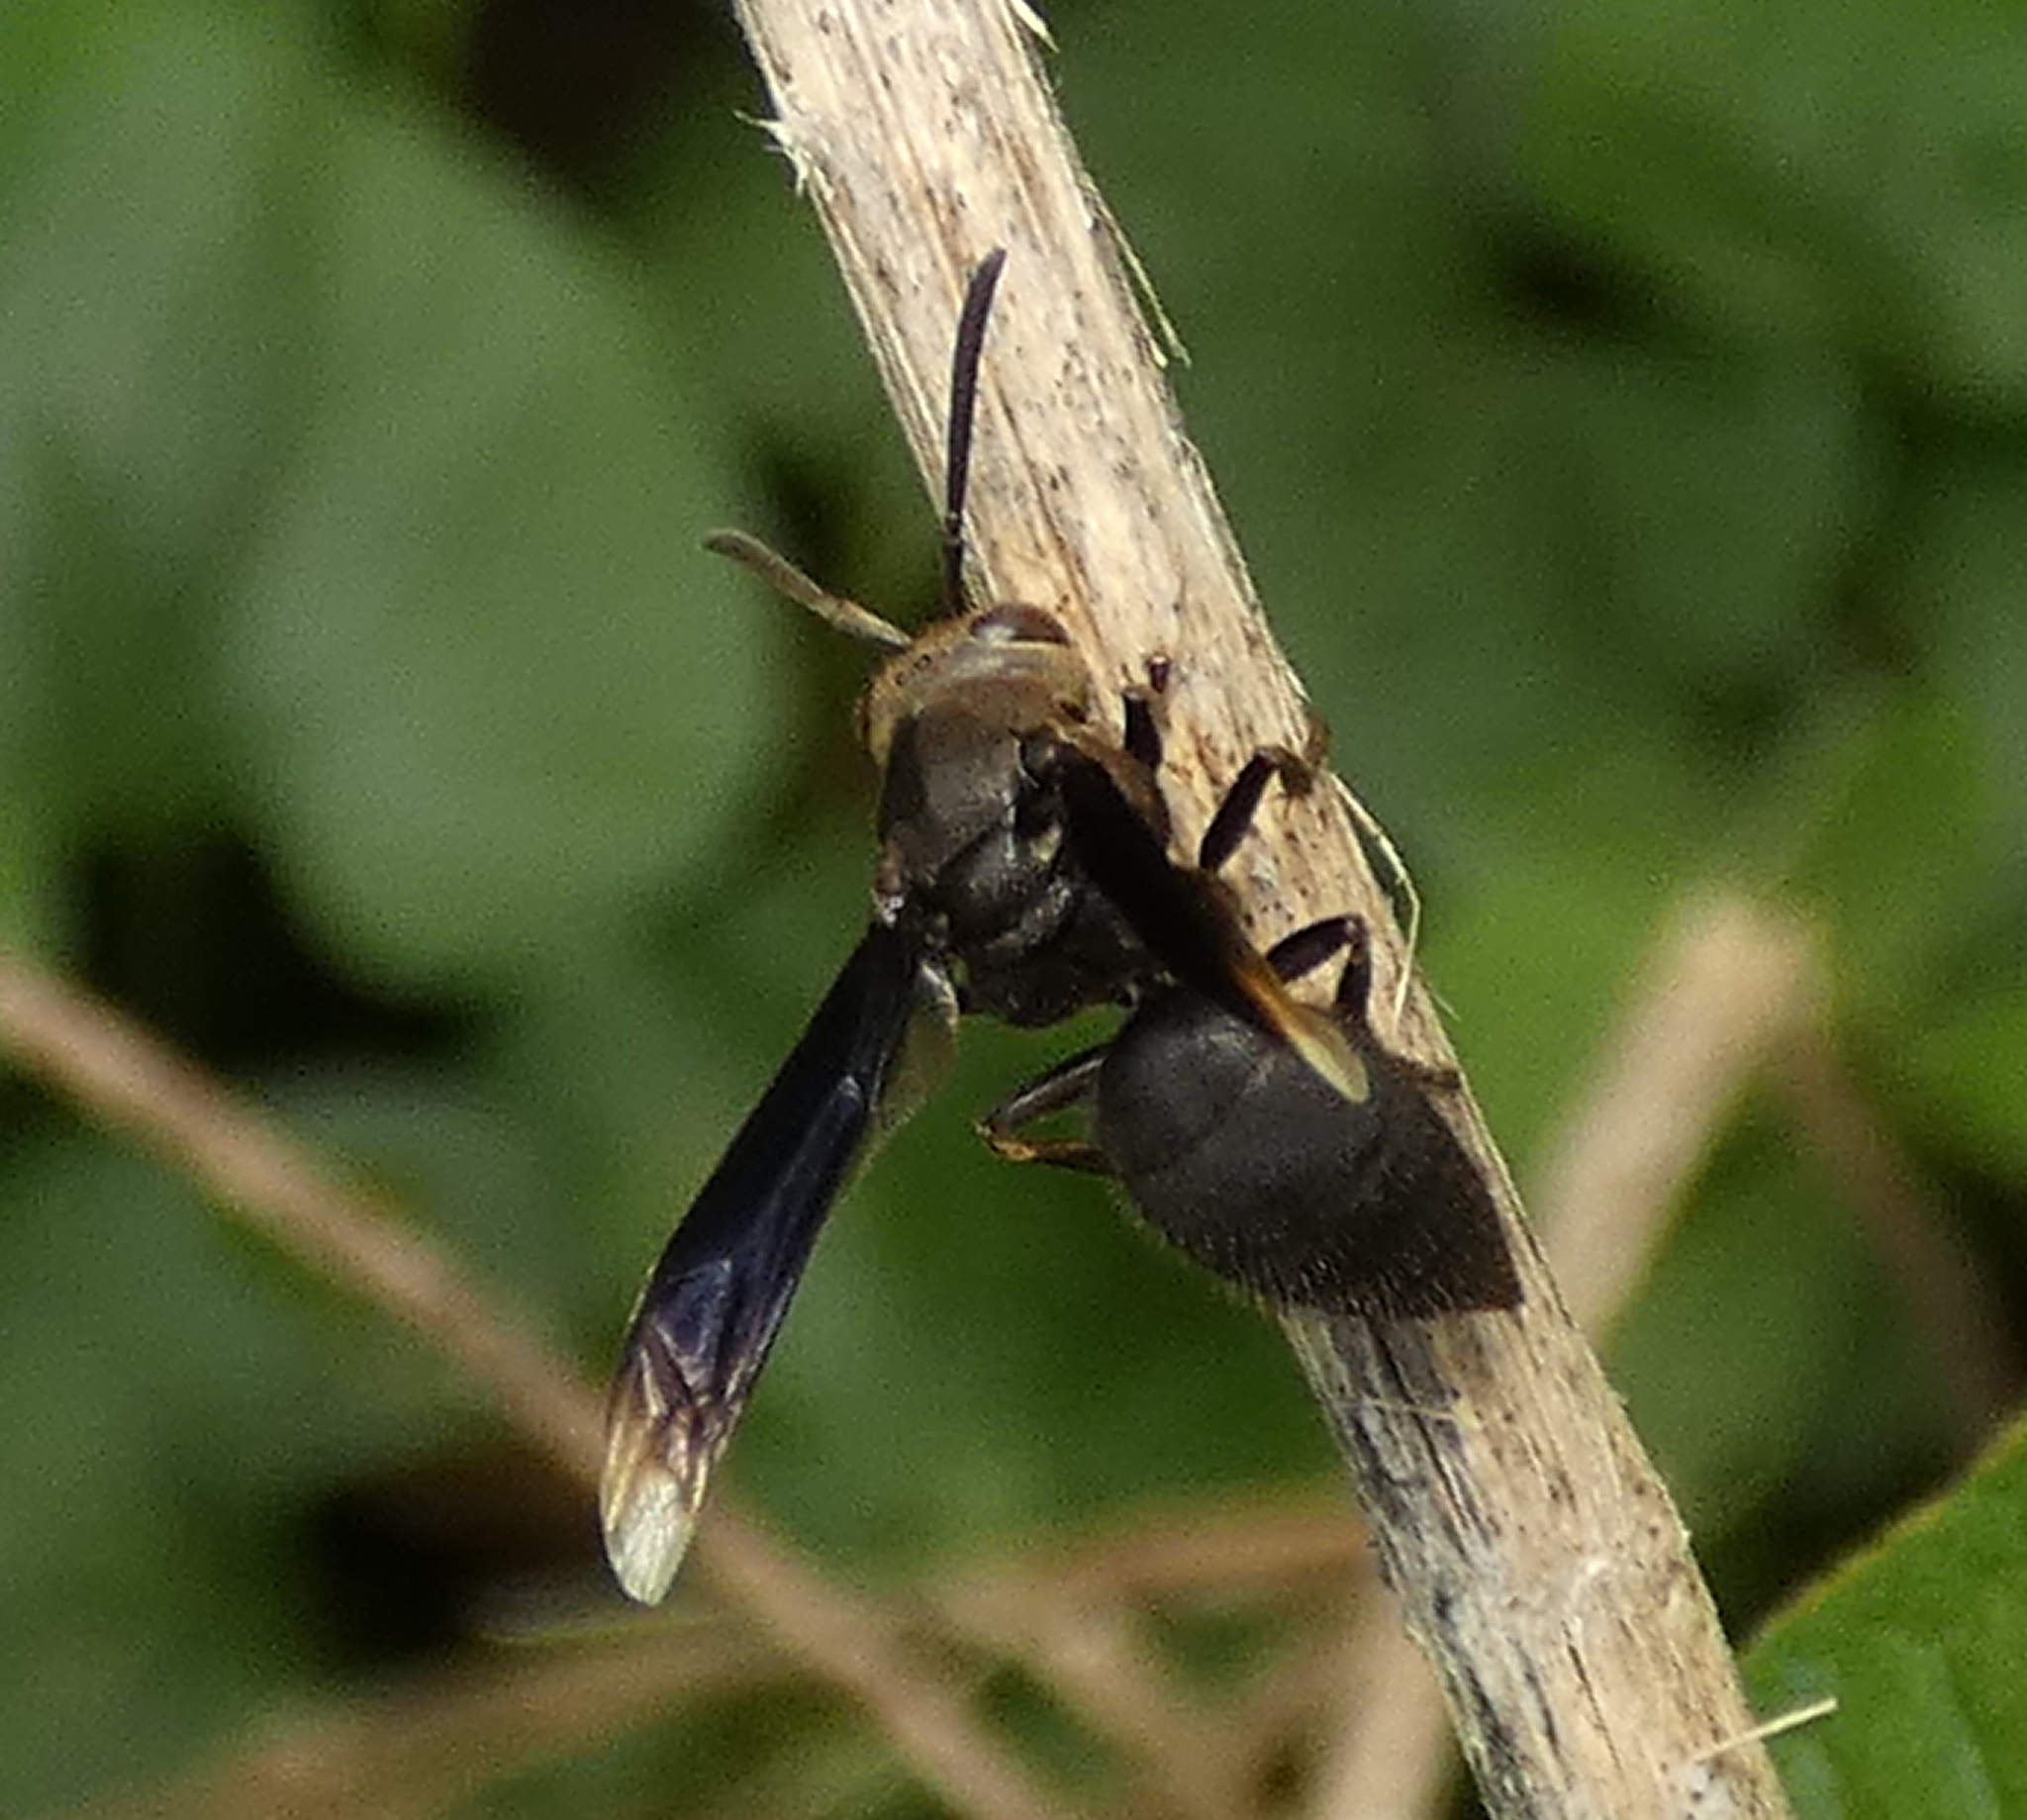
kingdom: Animalia
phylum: Arthropoda
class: Insecta
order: Hymenoptera
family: Vespidae
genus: Parachartergus
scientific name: Parachartergus fraternus
